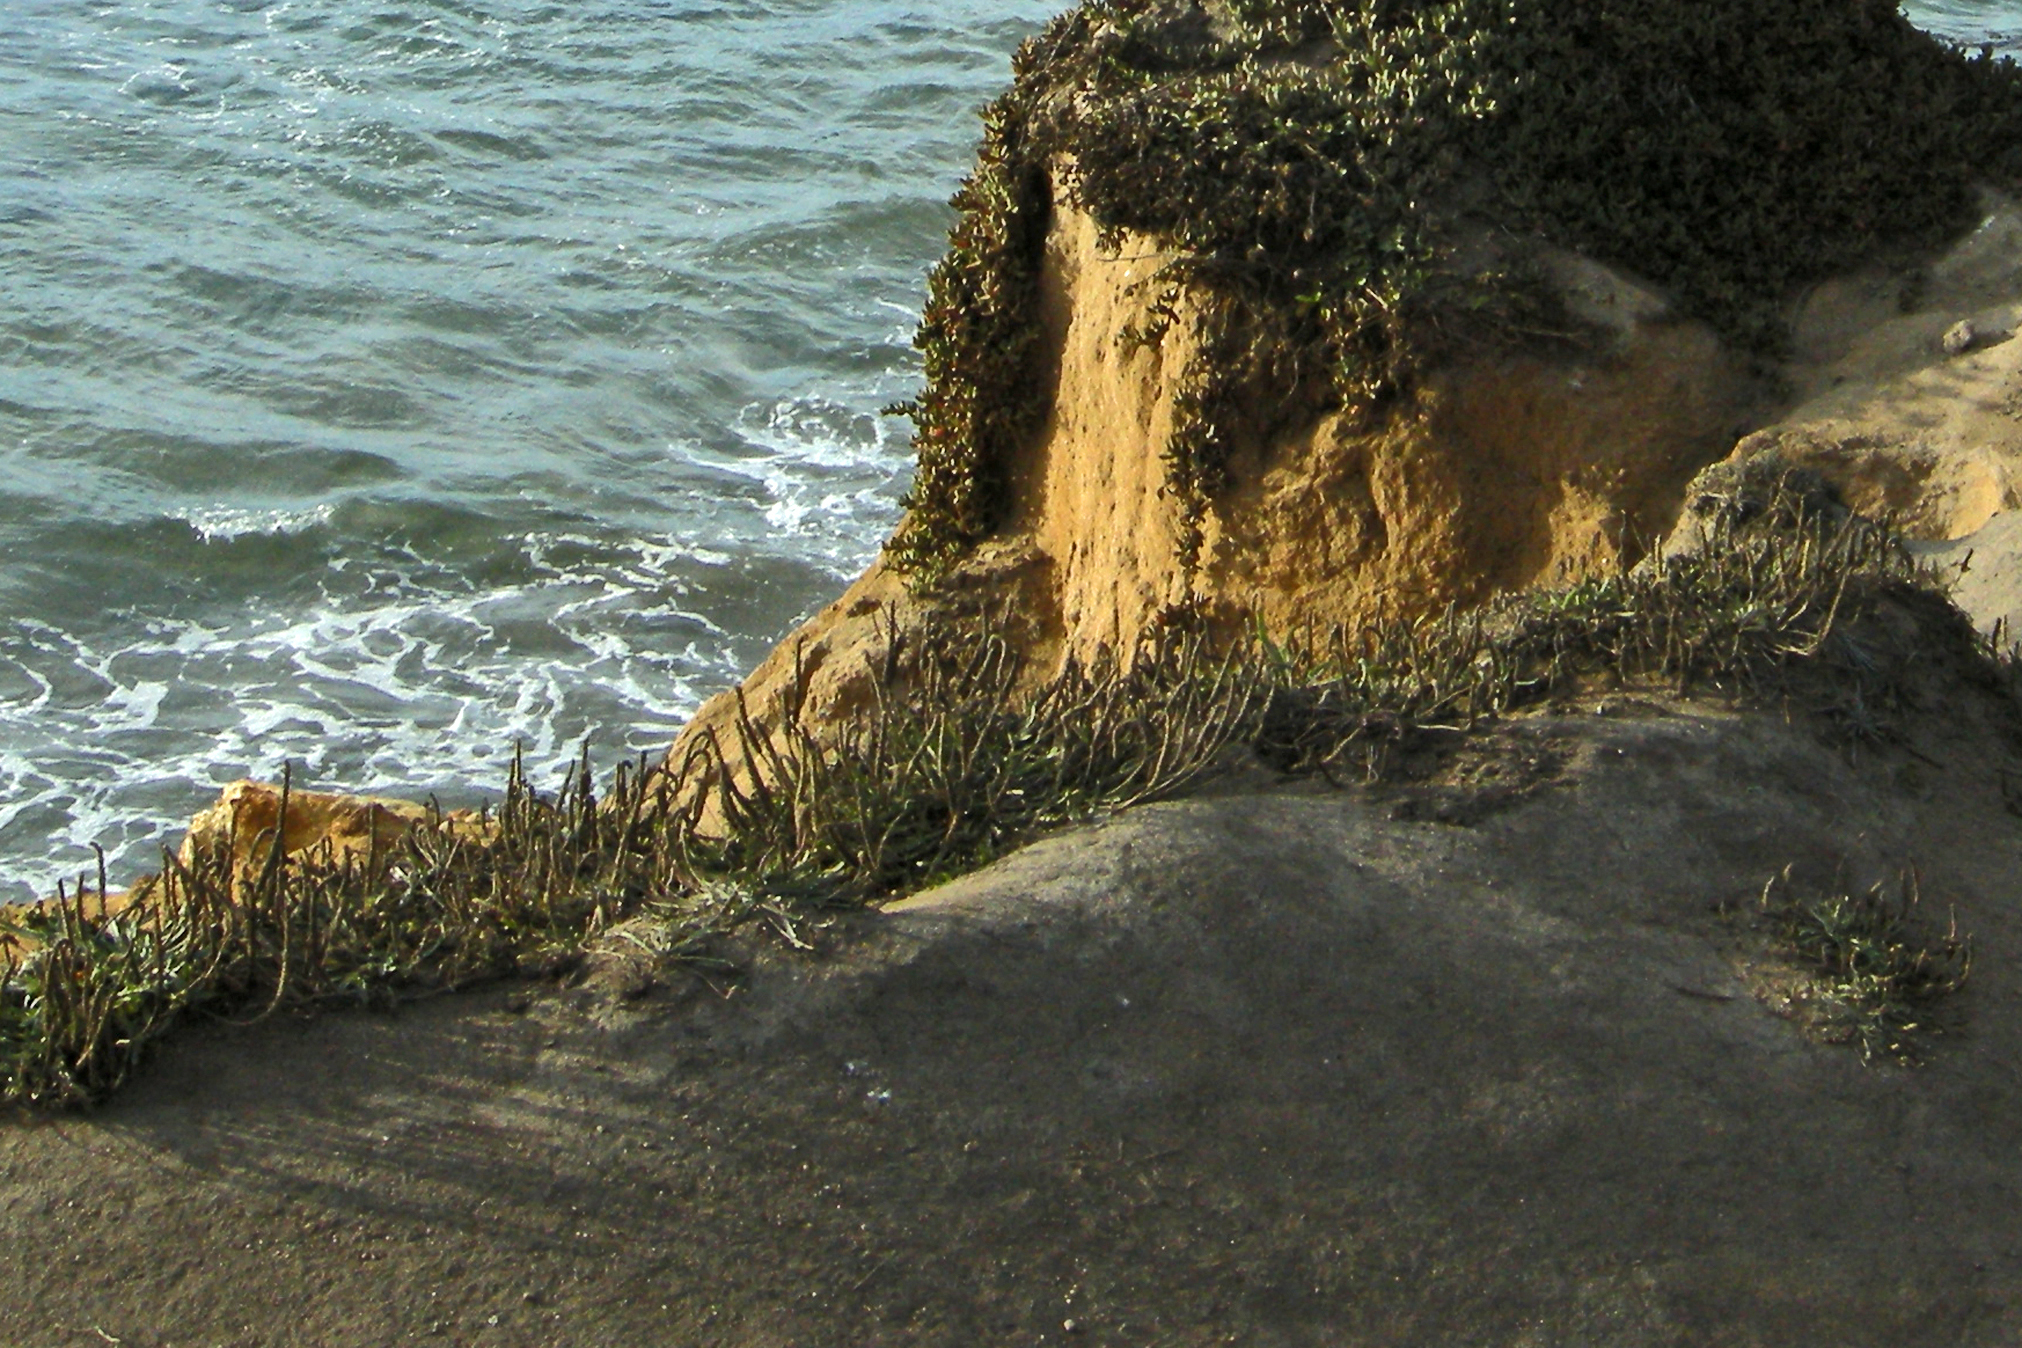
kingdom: Plantae
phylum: Tracheophyta
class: Magnoliopsida
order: Lamiales
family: Plantaginaceae
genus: Plantago
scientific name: Plantago coronopus
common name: Buck's-horn plantain
